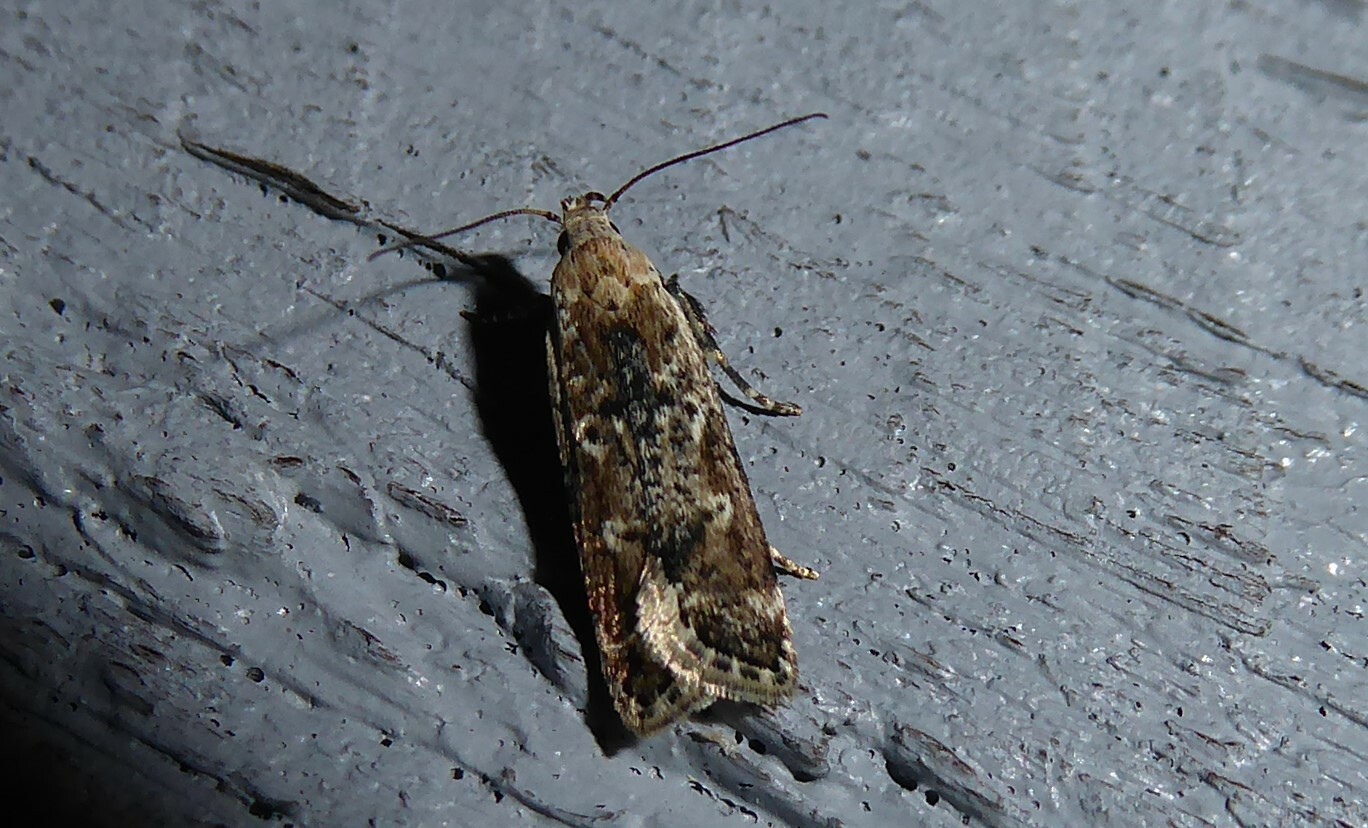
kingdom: Animalia
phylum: Arthropoda
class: Insecta
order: Lepidoptera
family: Gelechiidae
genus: Anisoplaca
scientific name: Anisoplaca achyrota
